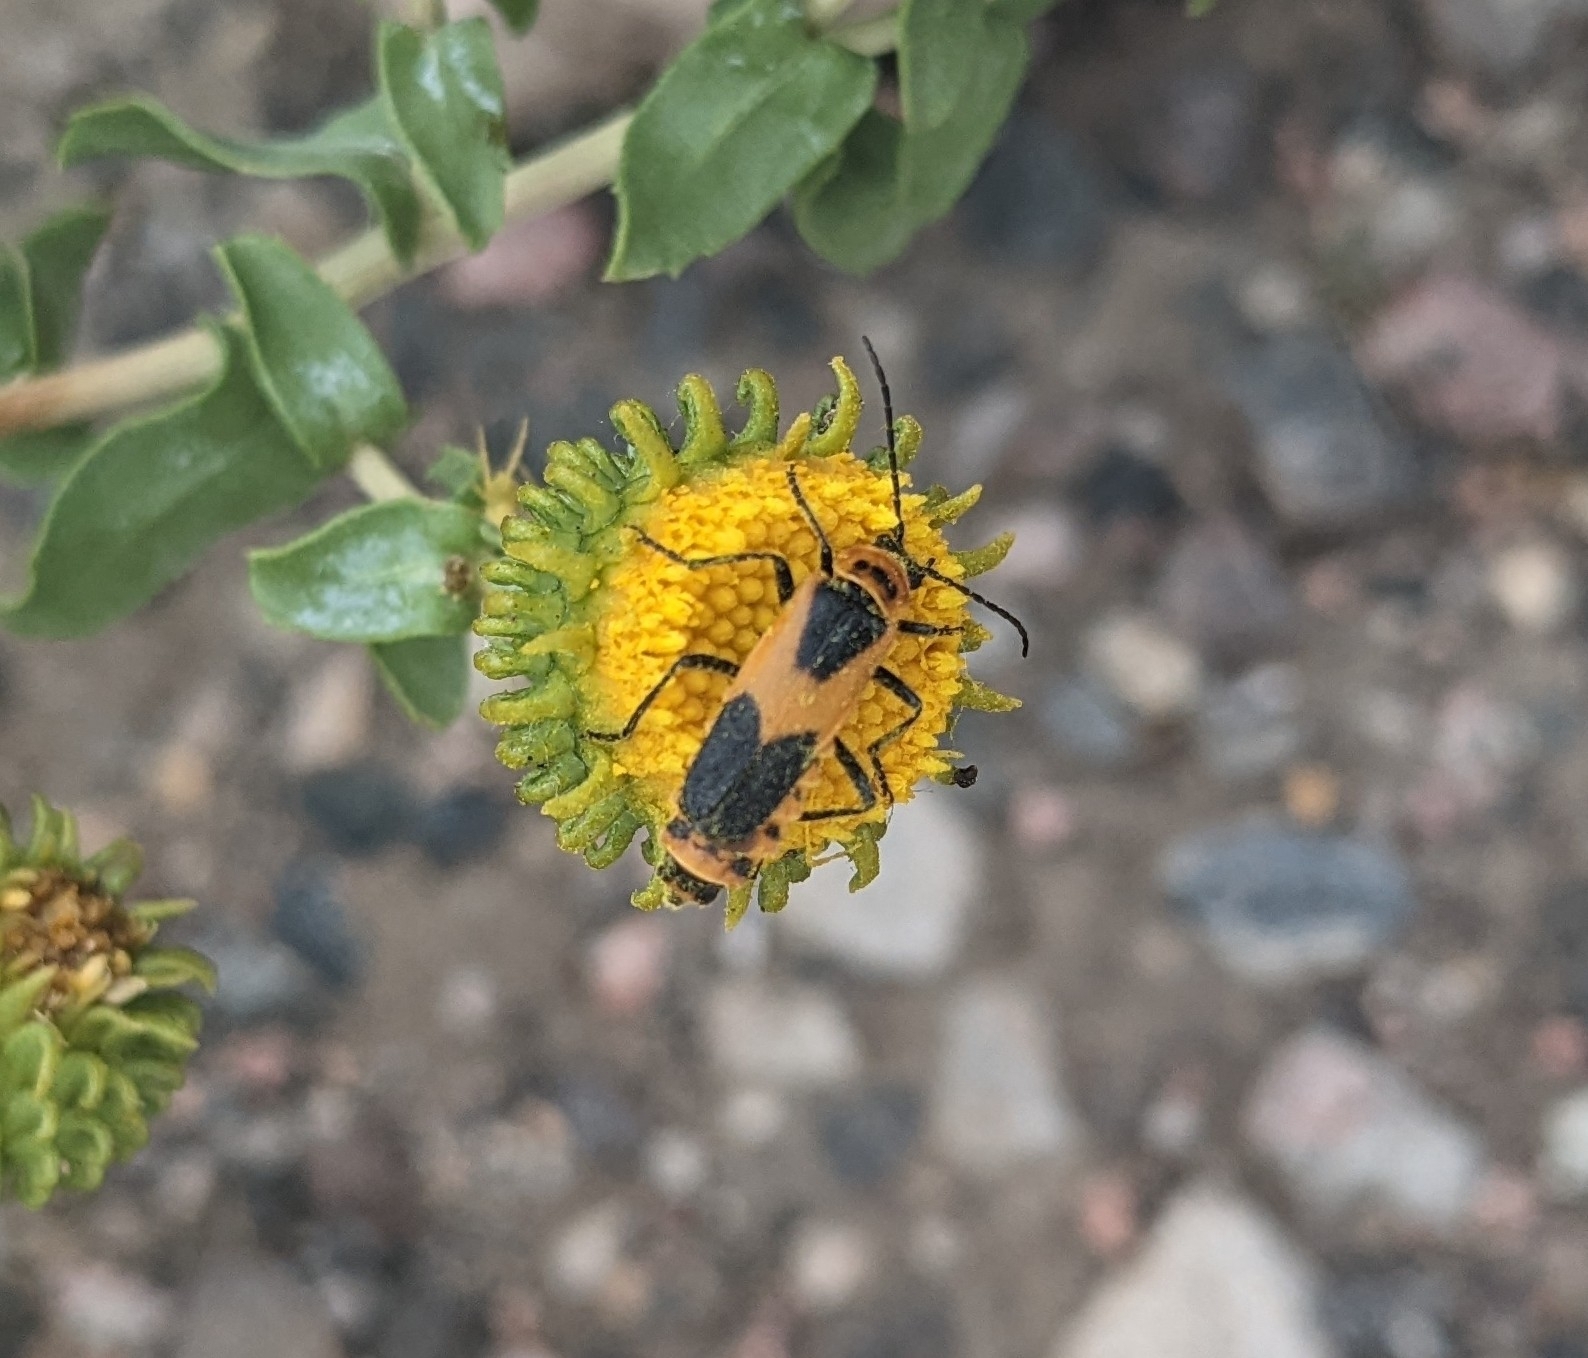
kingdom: Animalia
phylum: Arthropoda
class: Insecta
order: Coleoptera
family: Cantharidae
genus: Chauliognathus
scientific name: Chauliognathus basalis
